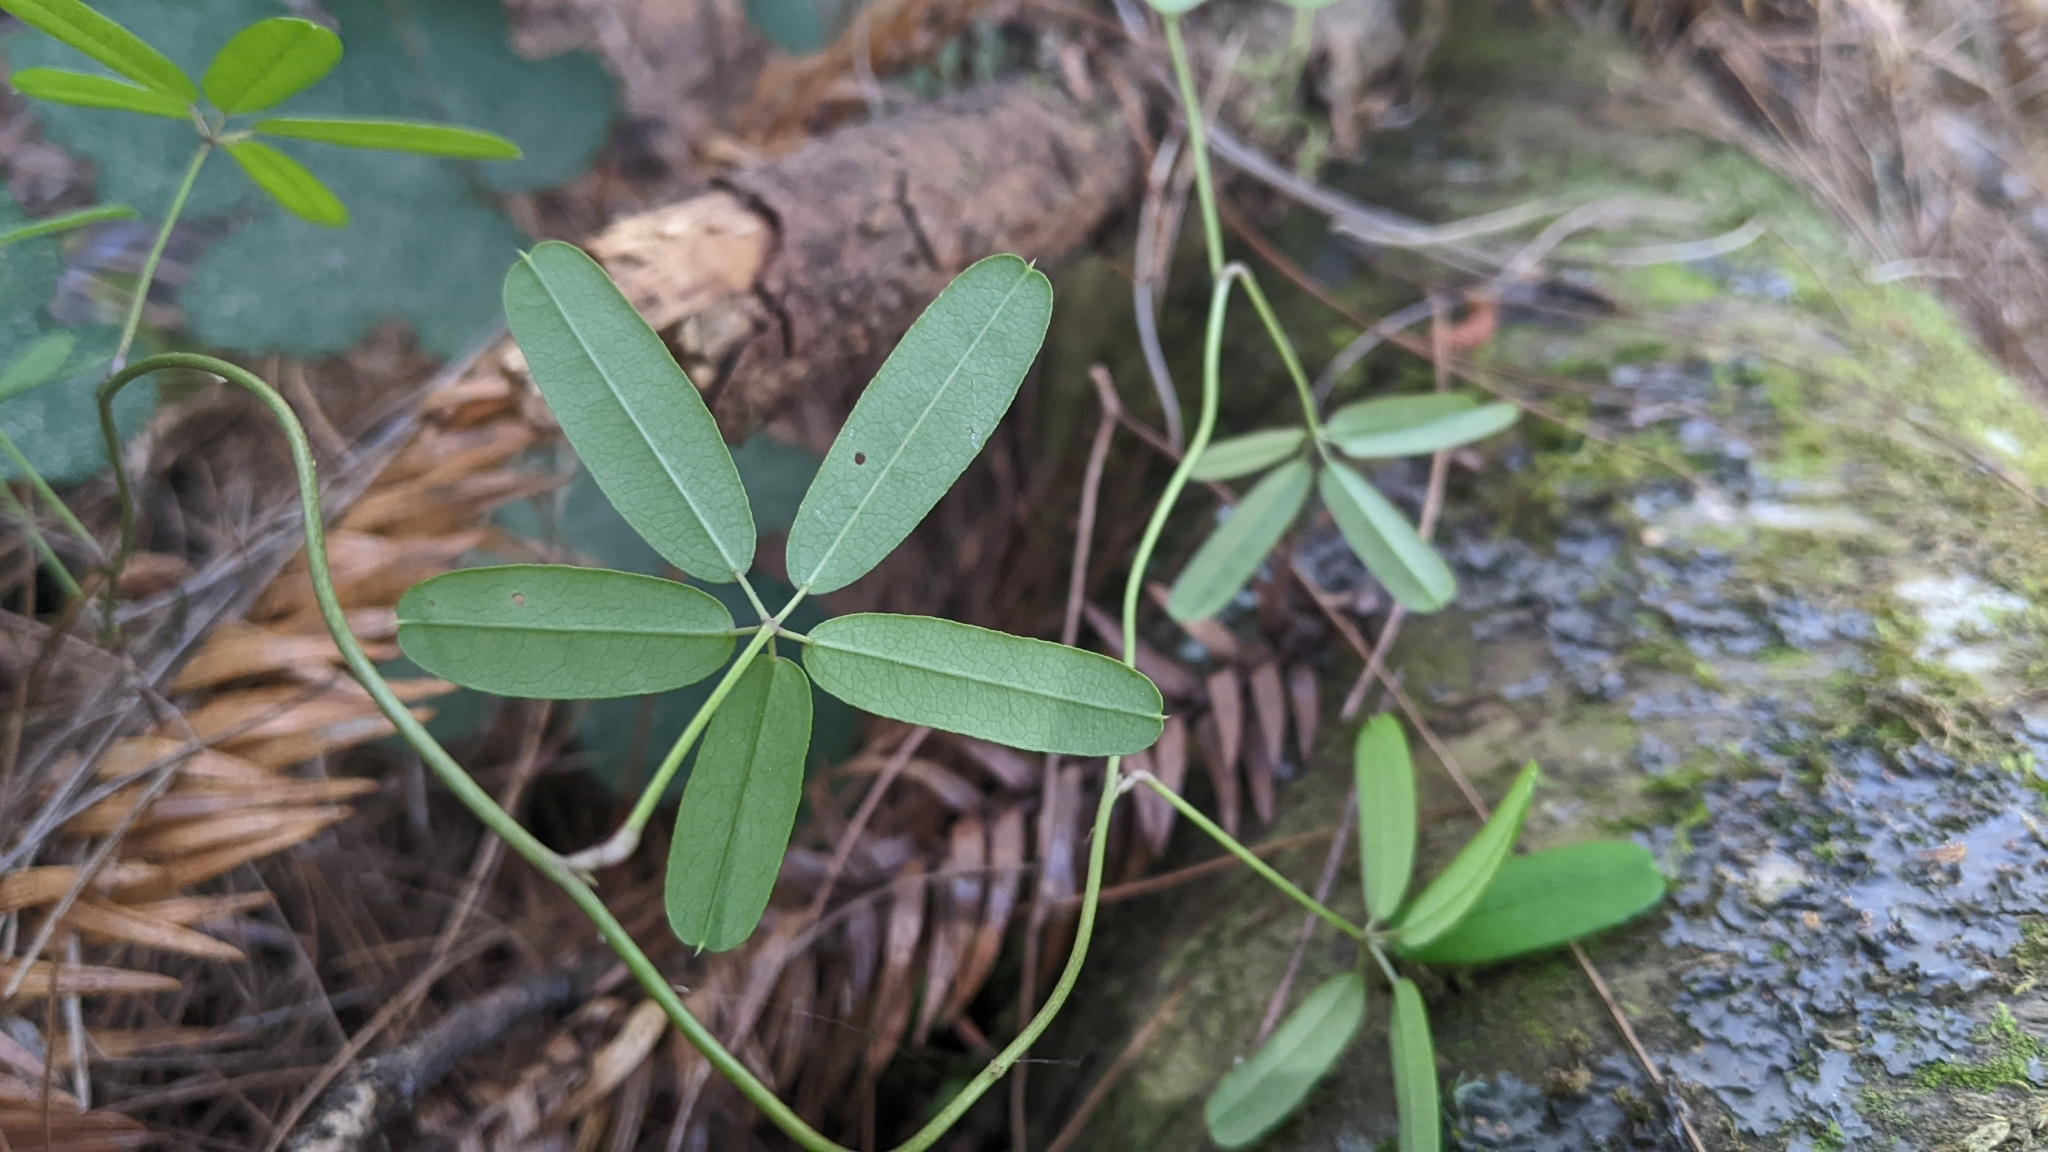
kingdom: Plantae
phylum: Tracheophyta
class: Magnoliopsida
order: Ranunculales
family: Lardizabalaceae
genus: Akebia
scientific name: Akebia longeracemosa
